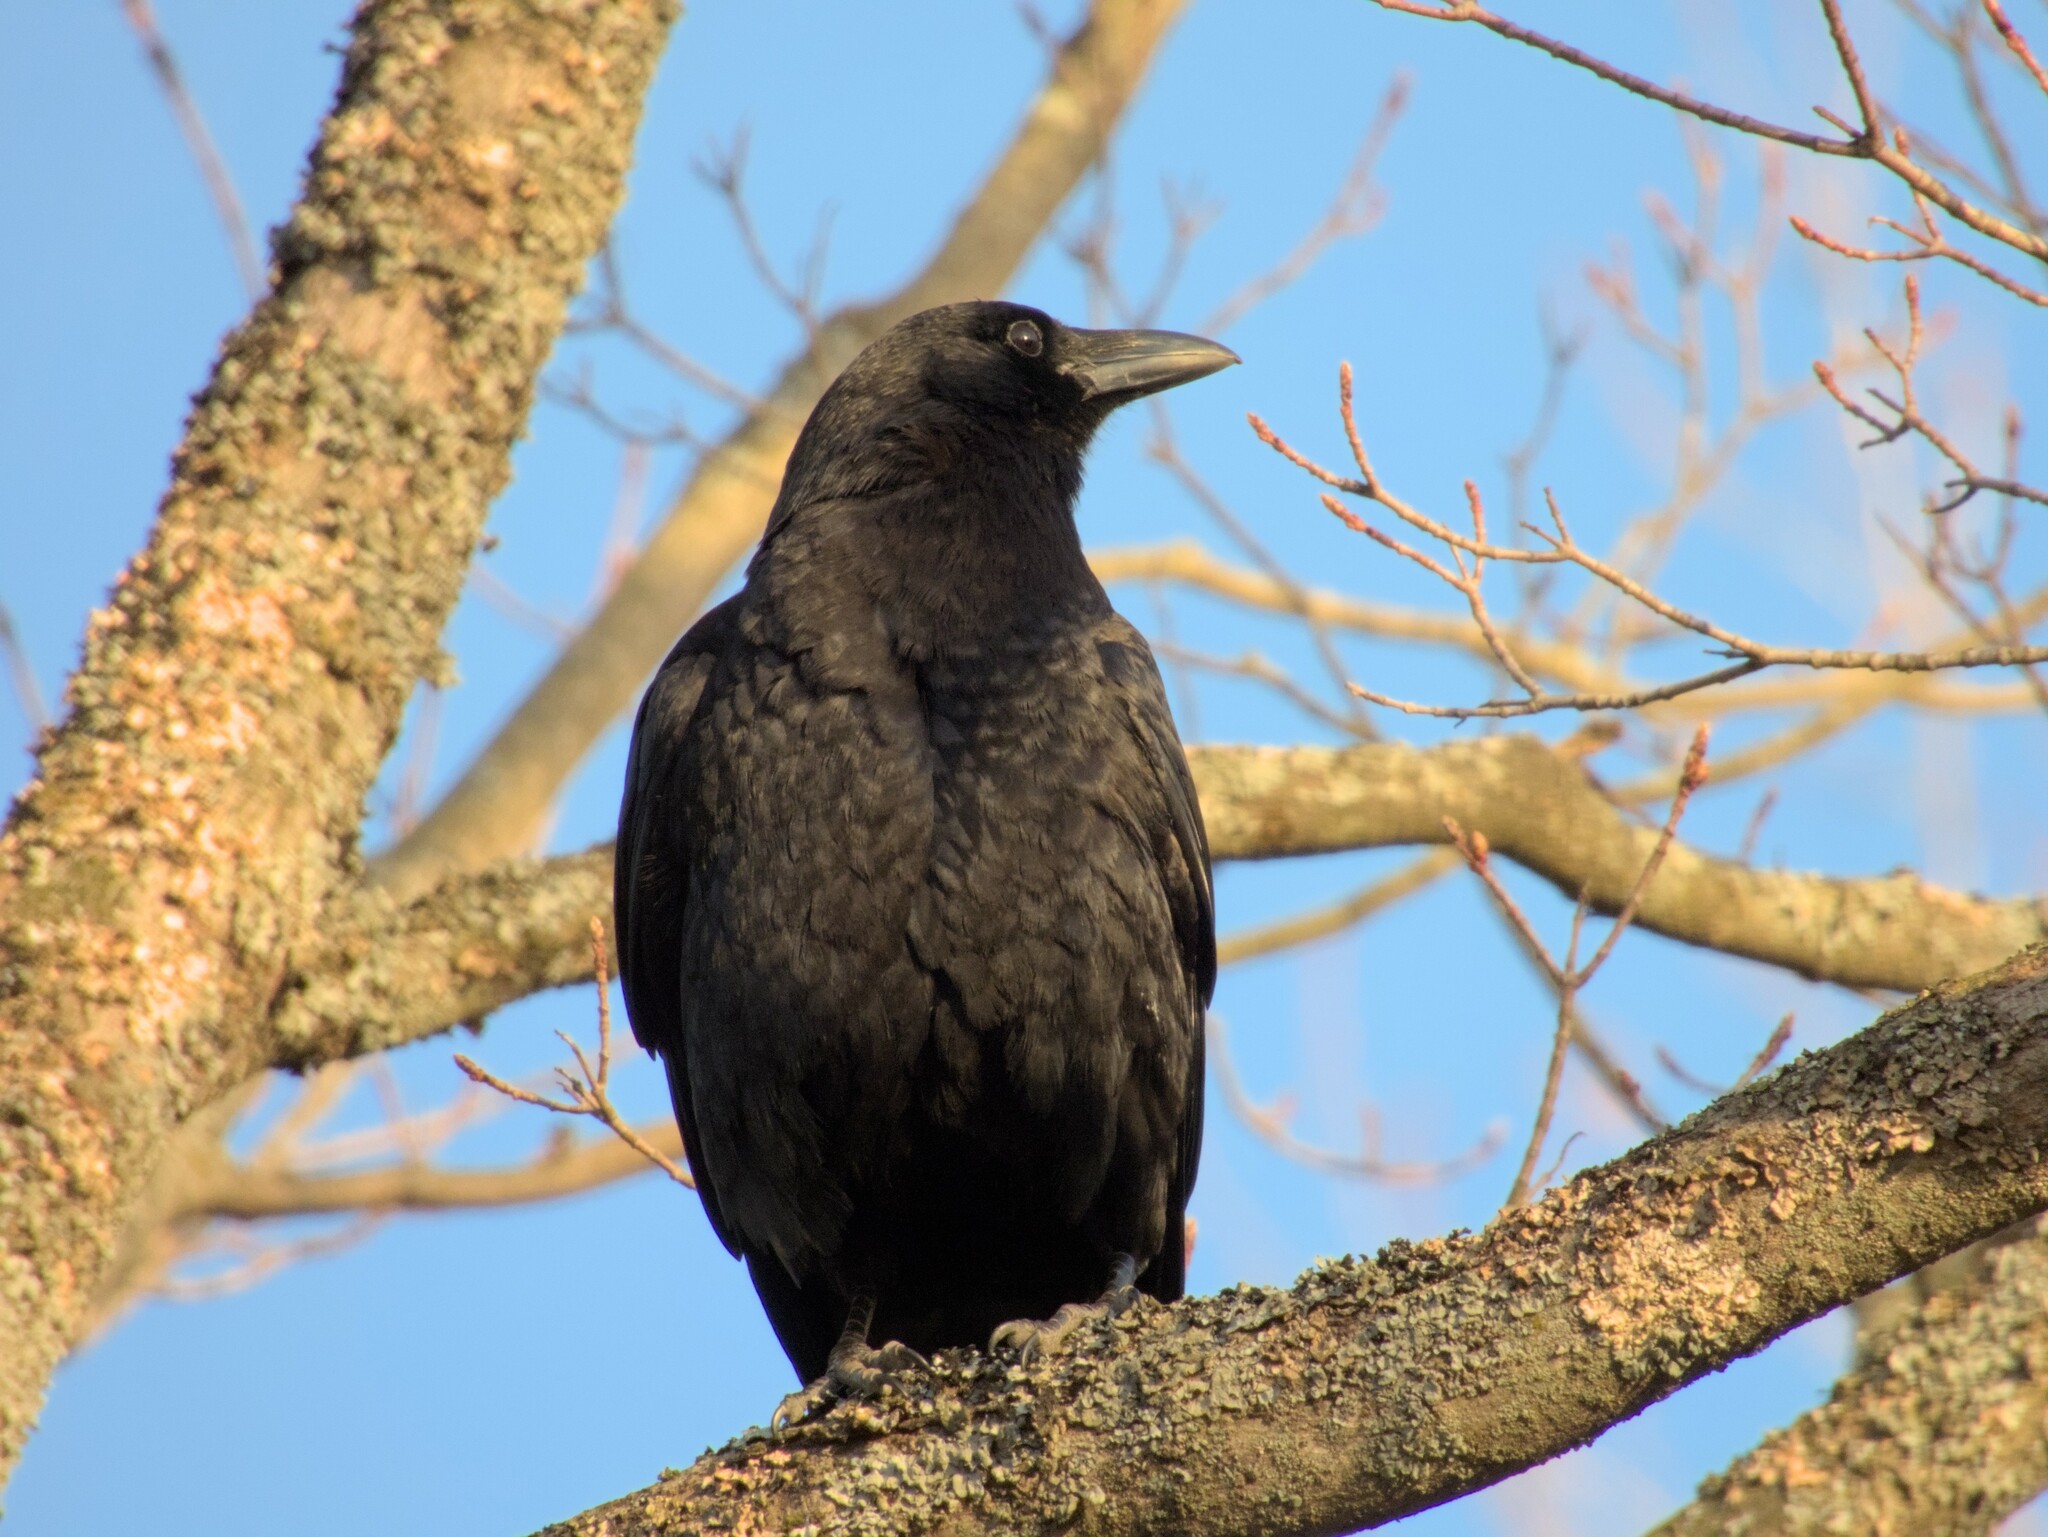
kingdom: Animalia
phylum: Chordata
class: Aves
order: Passeriformes
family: Corvidae
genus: Corvus
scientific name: Corvus brachyrhynchos
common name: American crow
